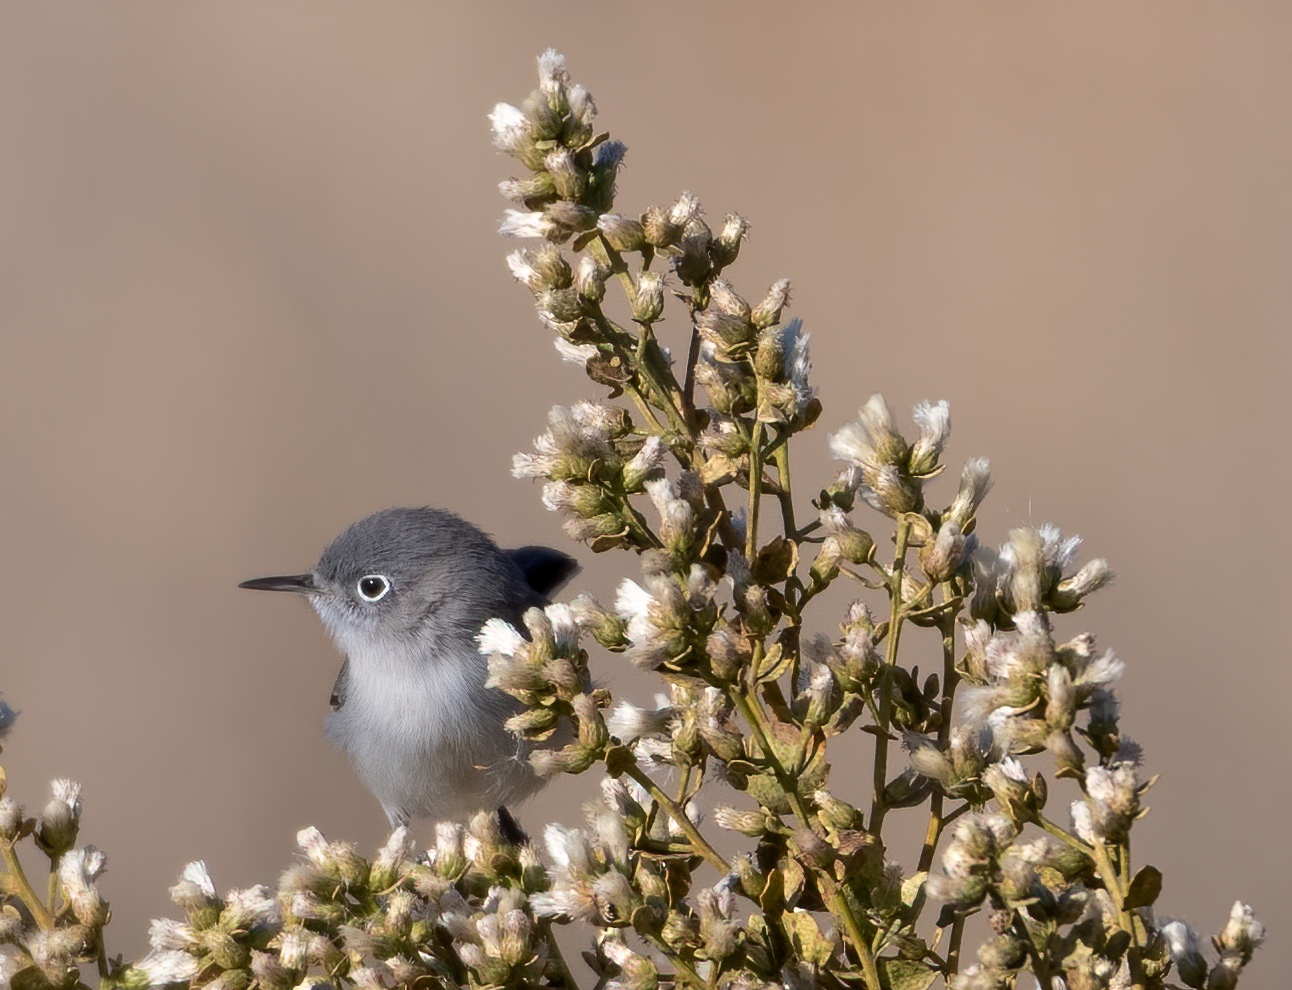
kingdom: Animalia
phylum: Chordata
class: Aves
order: Passeriformes
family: Polioptilidae
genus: Polioptila
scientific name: Polioptila caerulea
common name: Blue-gray gnatcatcher
